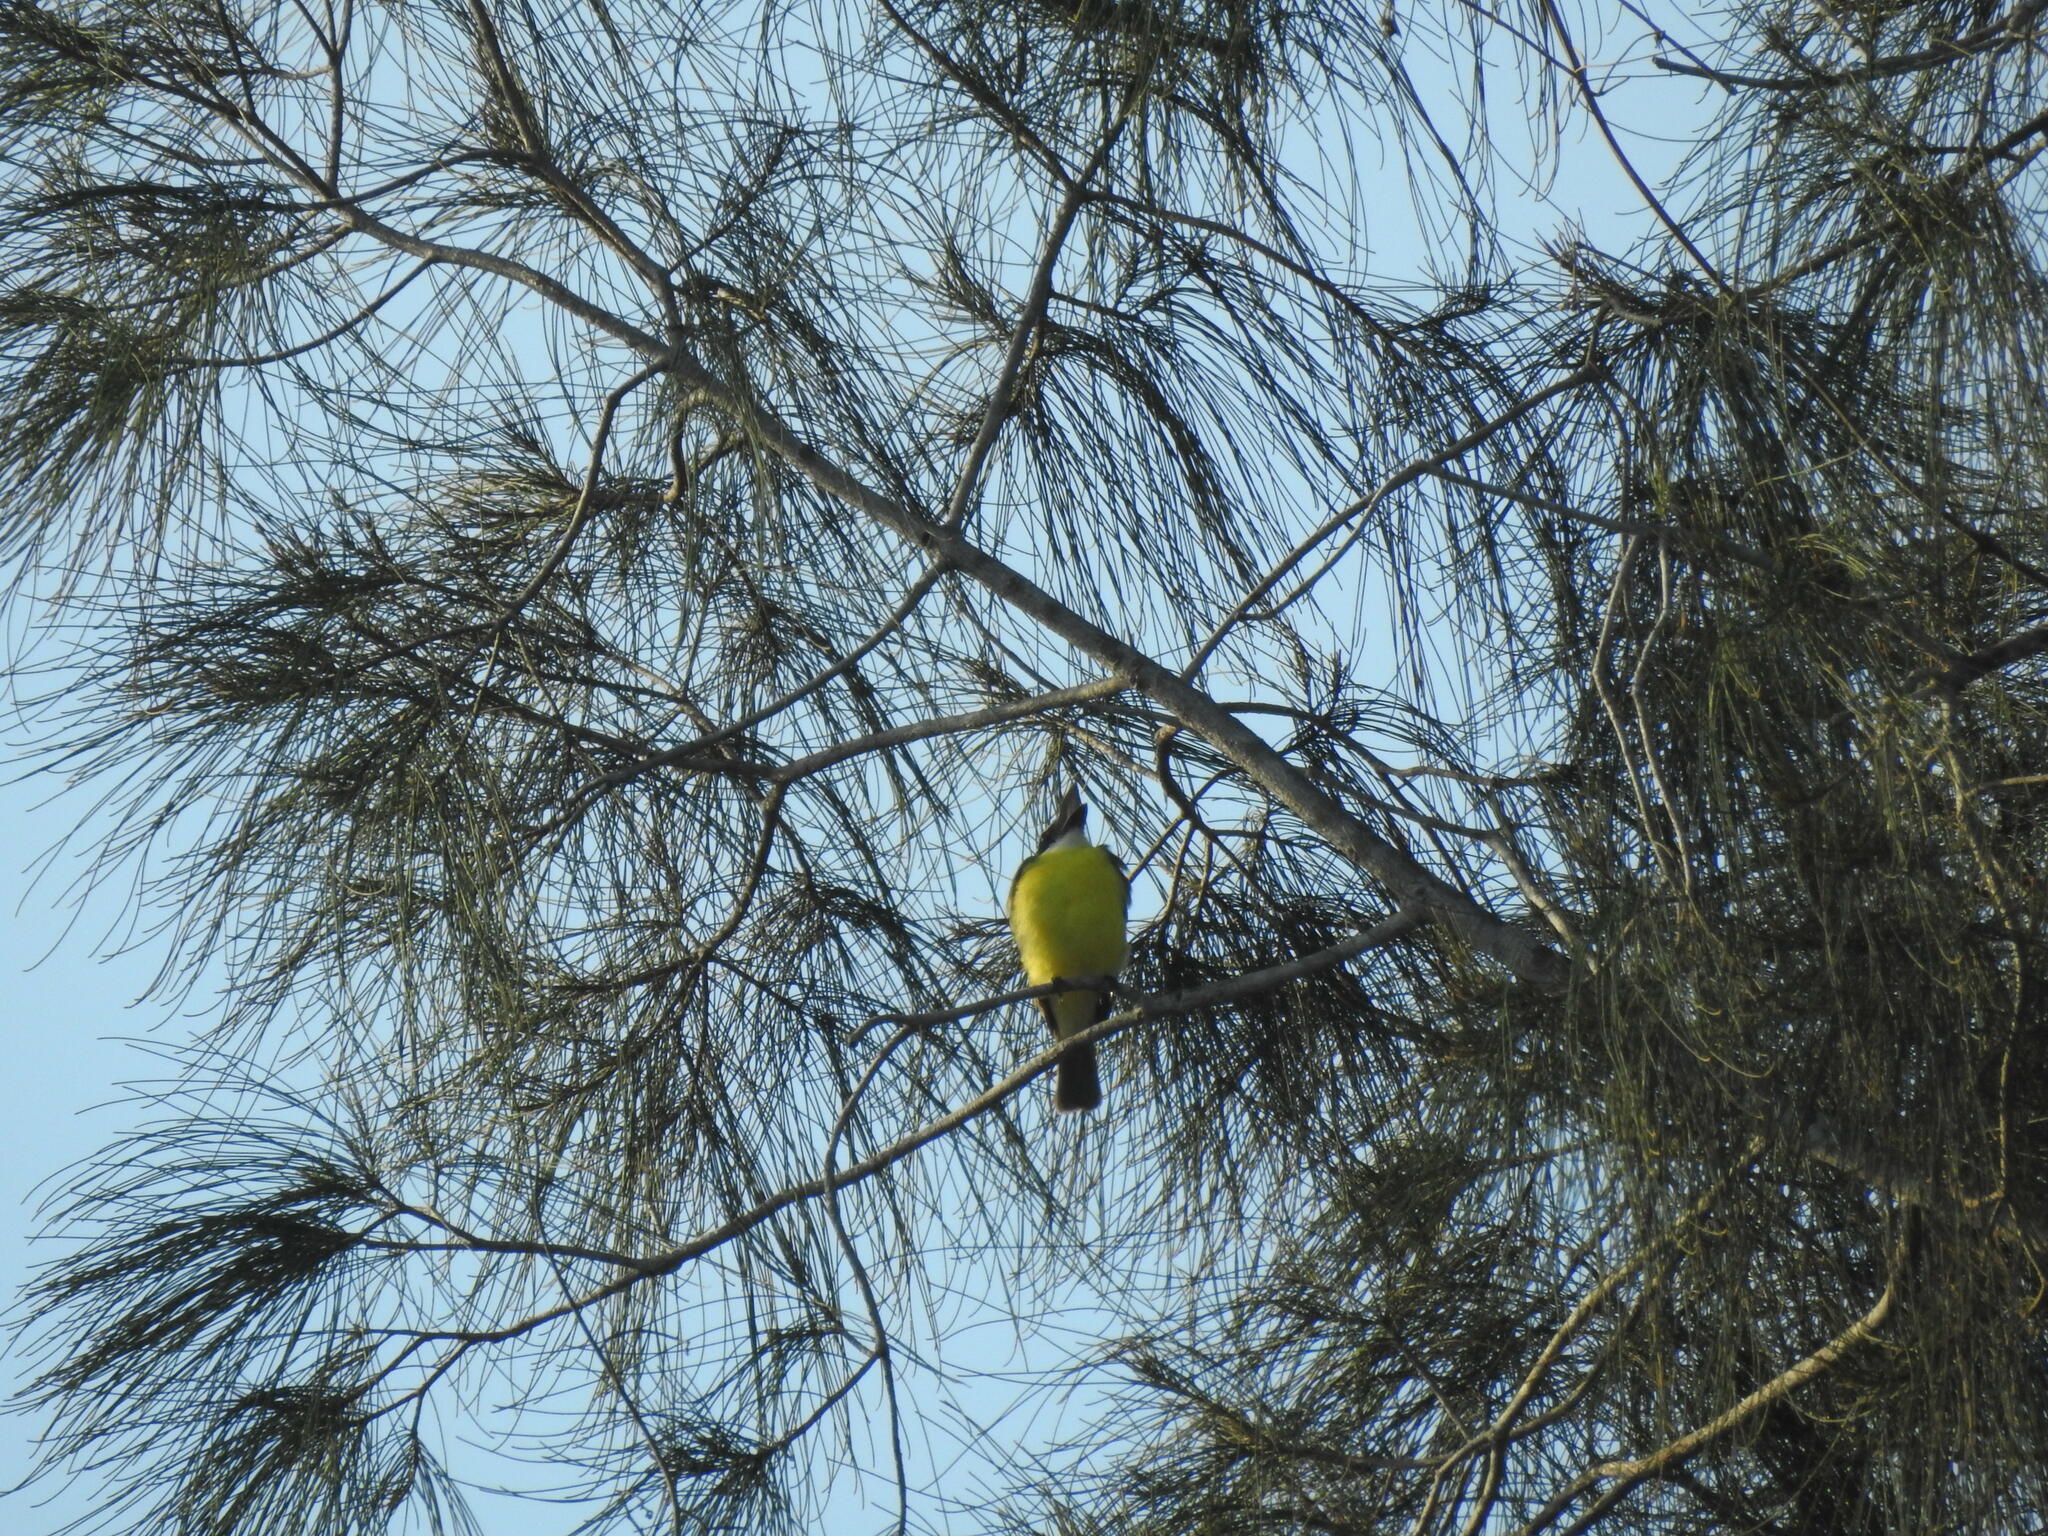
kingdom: Animalia
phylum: Chordata
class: Aves
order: Passeriformes
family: Tyrannidae
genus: Megarynchus
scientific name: Megarynchus pitangua
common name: Boat-billed flycatcher
